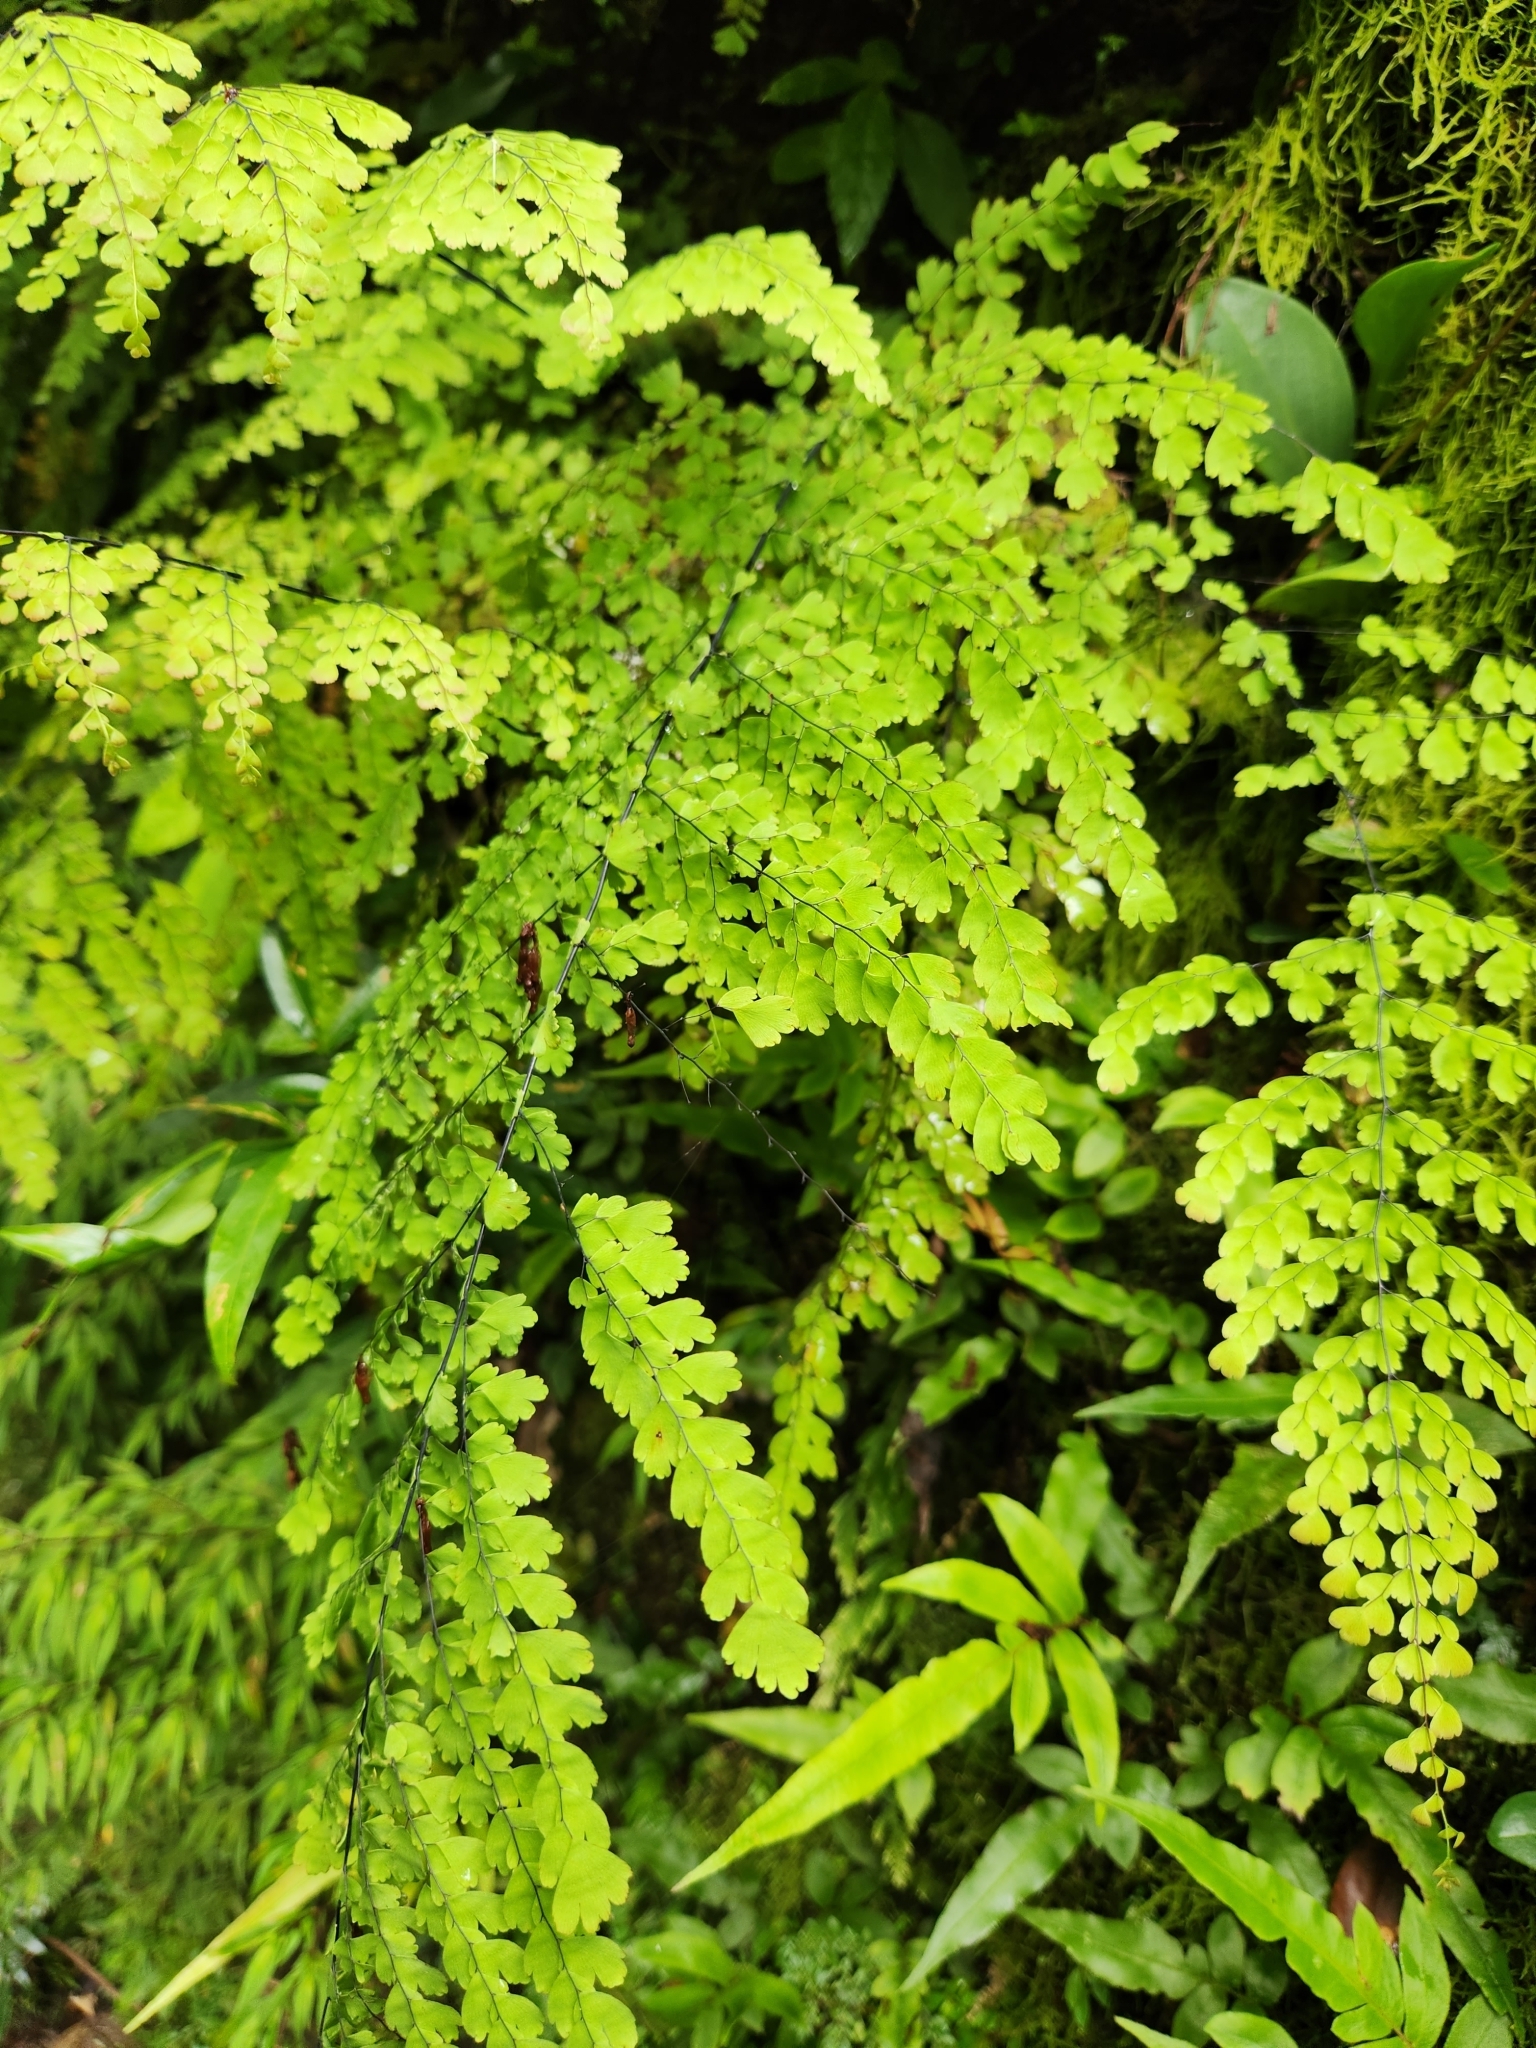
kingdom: Plantae
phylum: Tracheophyta
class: Polypodiopsida
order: Polypodiales
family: Pteridaceae
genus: Adiantum
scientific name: Adiantum concinnum
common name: Brittle maidenhair fern
